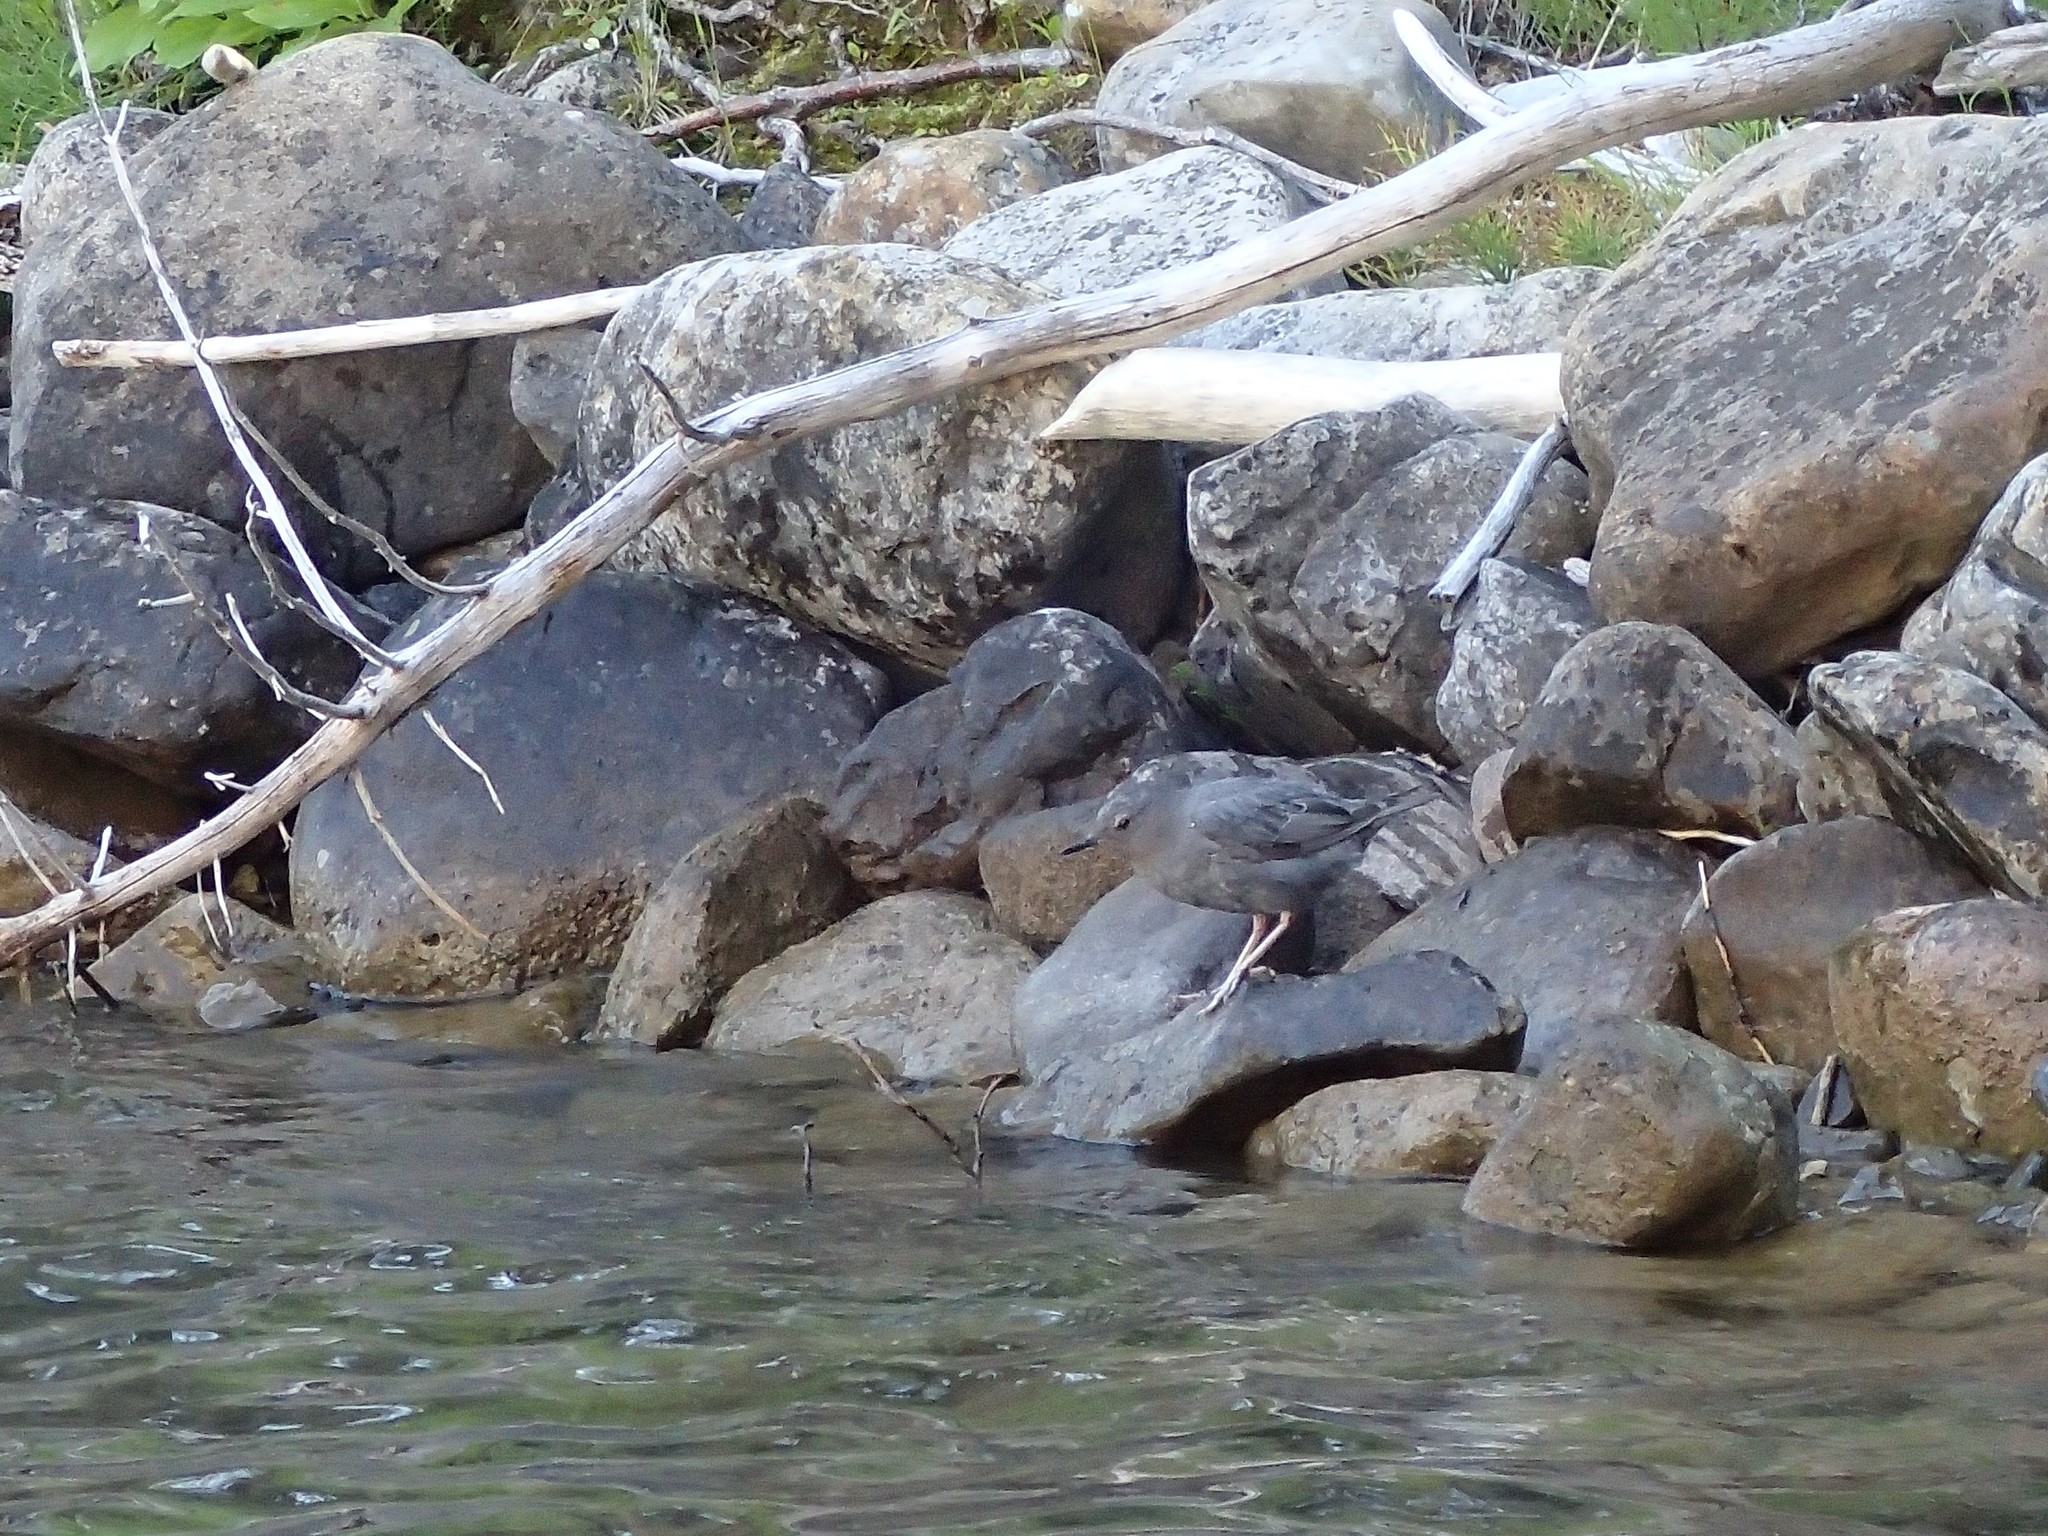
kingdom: Animalia
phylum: Chordata
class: Aves
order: Passeriformes
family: Cinclidae
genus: Cinclus
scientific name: Cinclus mexicanus
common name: American dipper
